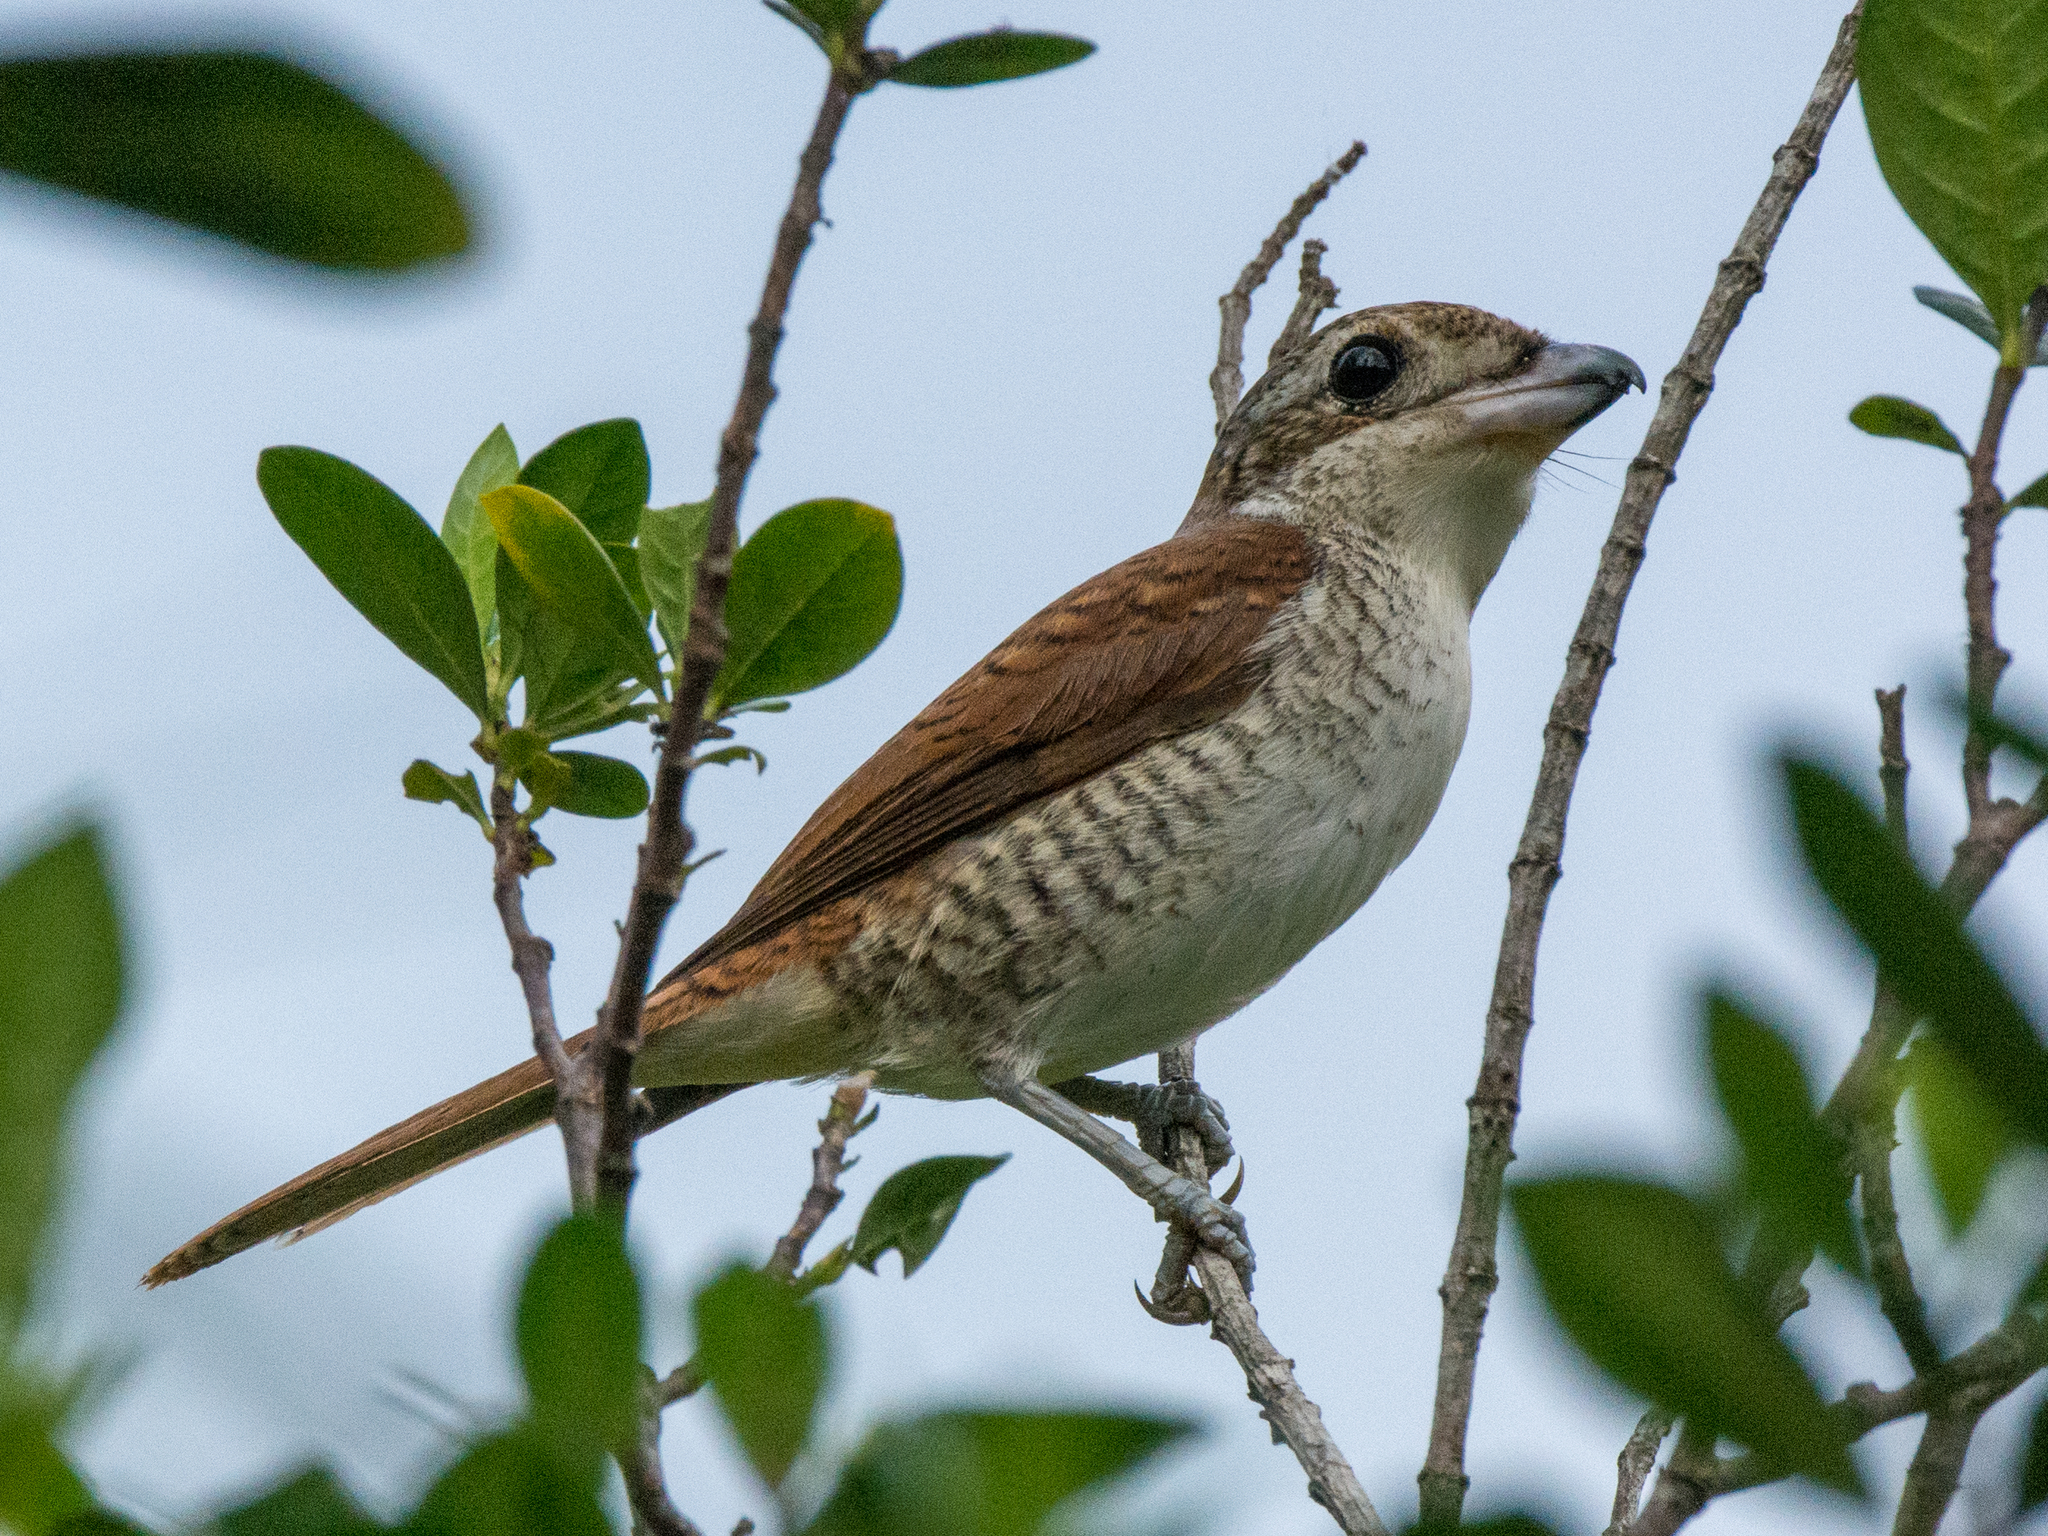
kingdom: Animalia
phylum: Chordata
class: Aves
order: Passeriformes
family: Laniidae
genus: Lanius
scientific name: Lanius tigrinus
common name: Tiger shrike
